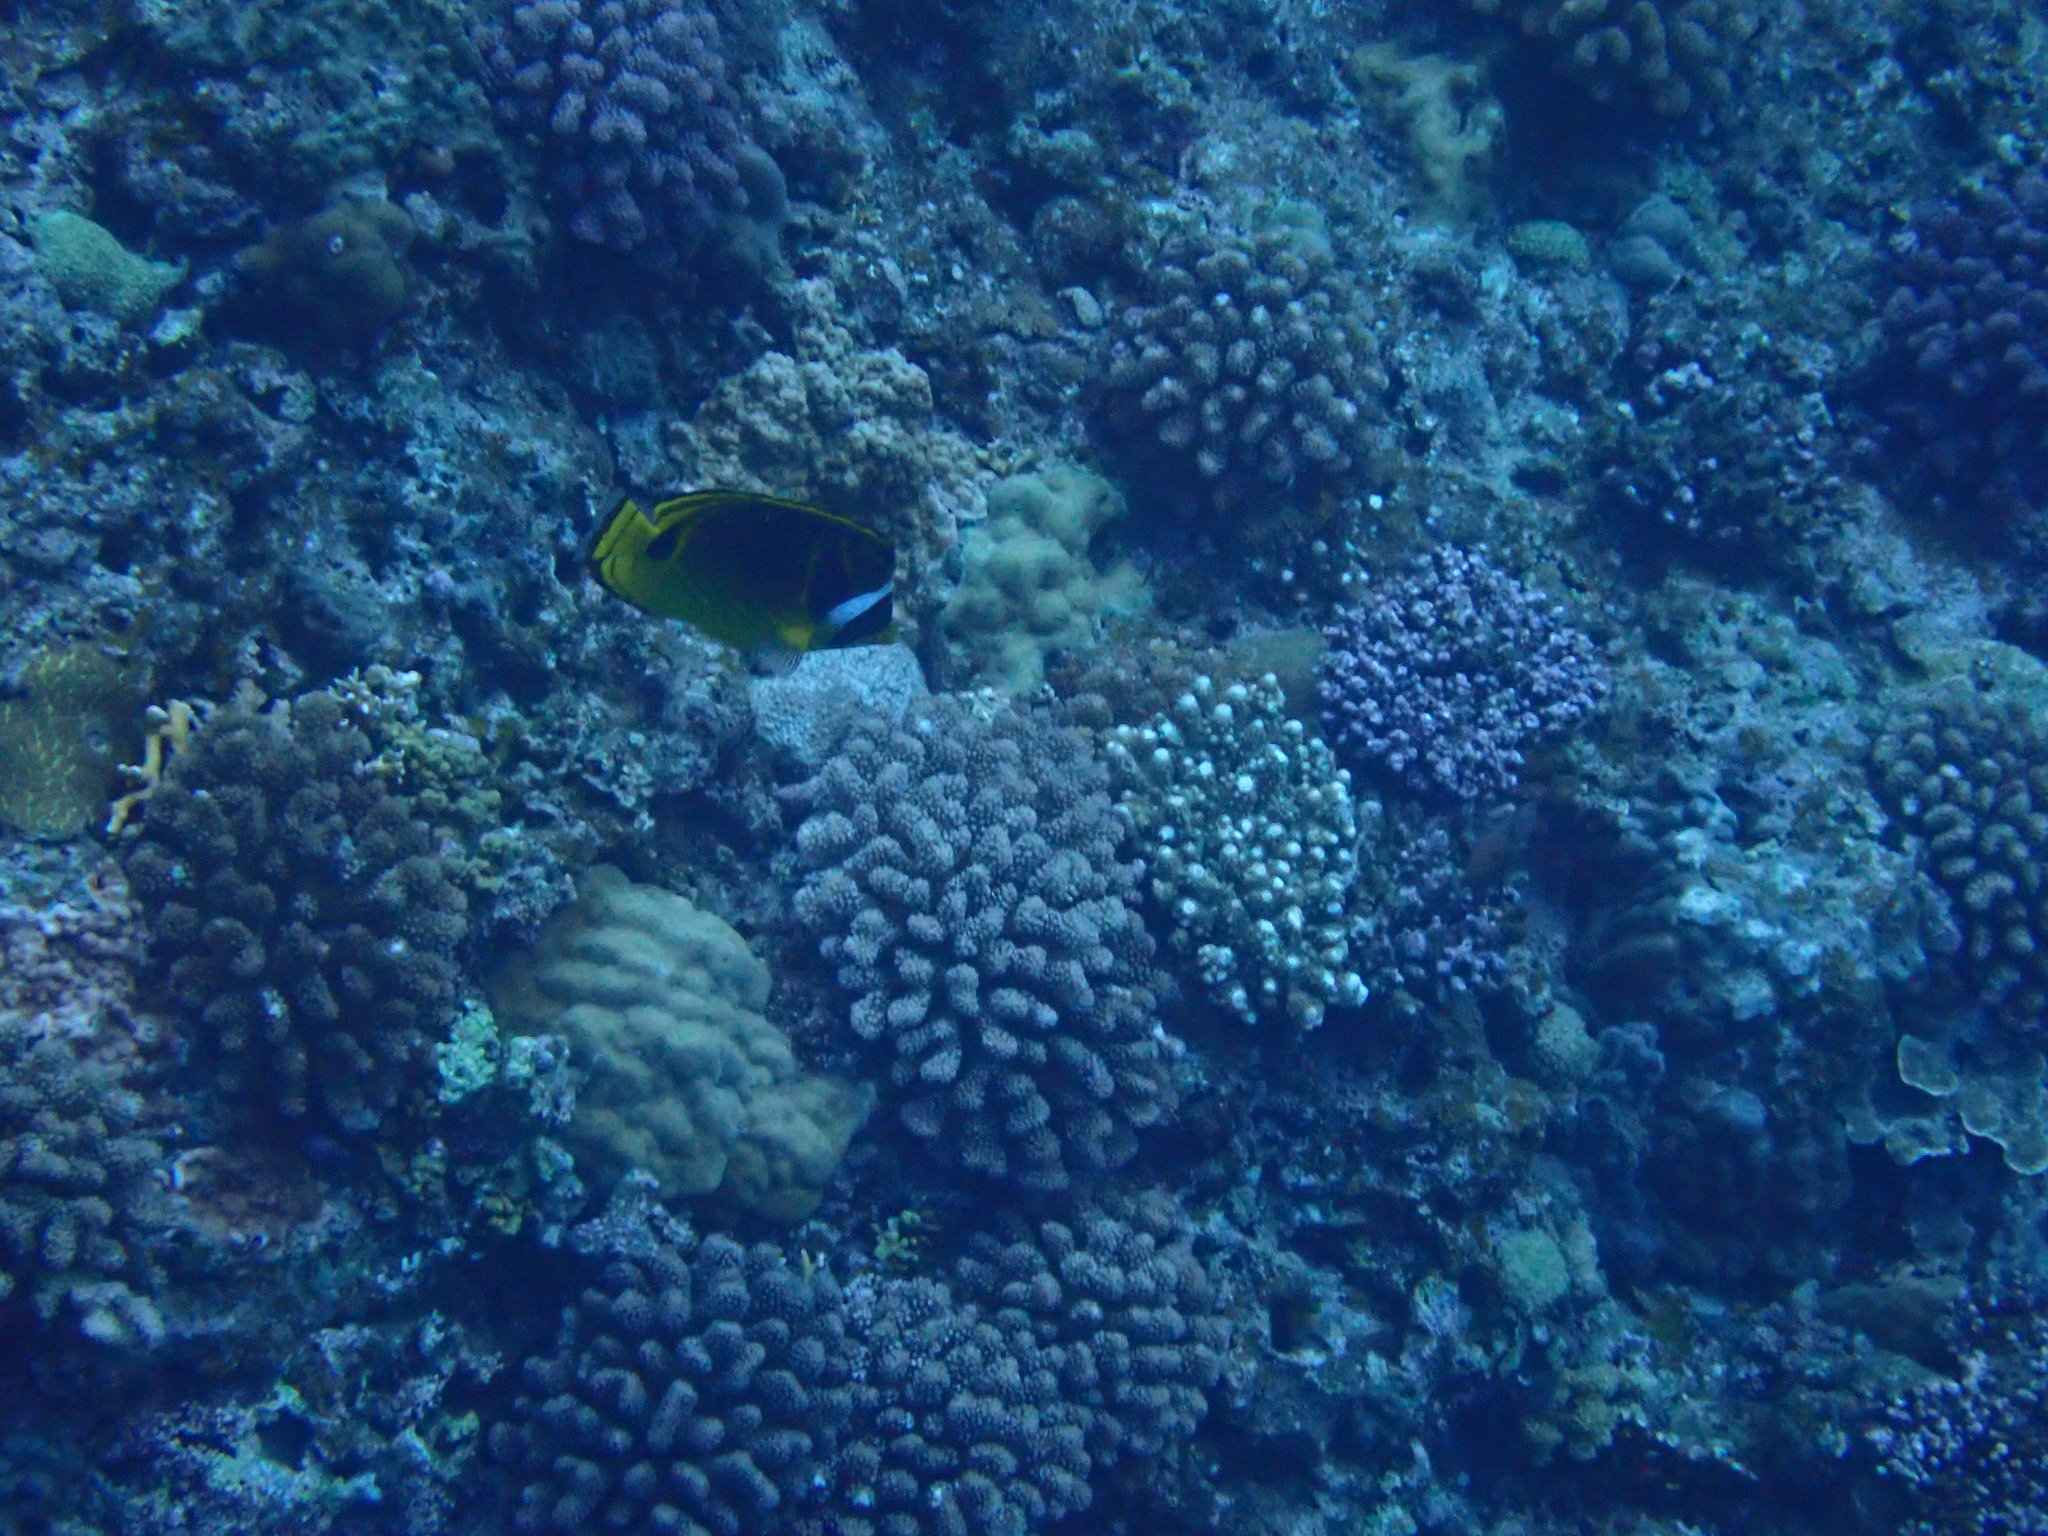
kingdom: Animalia
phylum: Chordata
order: Perciformes
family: Chaetodontidae
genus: Chaetodon
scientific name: Chaetodon lunula
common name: Raccoon butterflyfish
